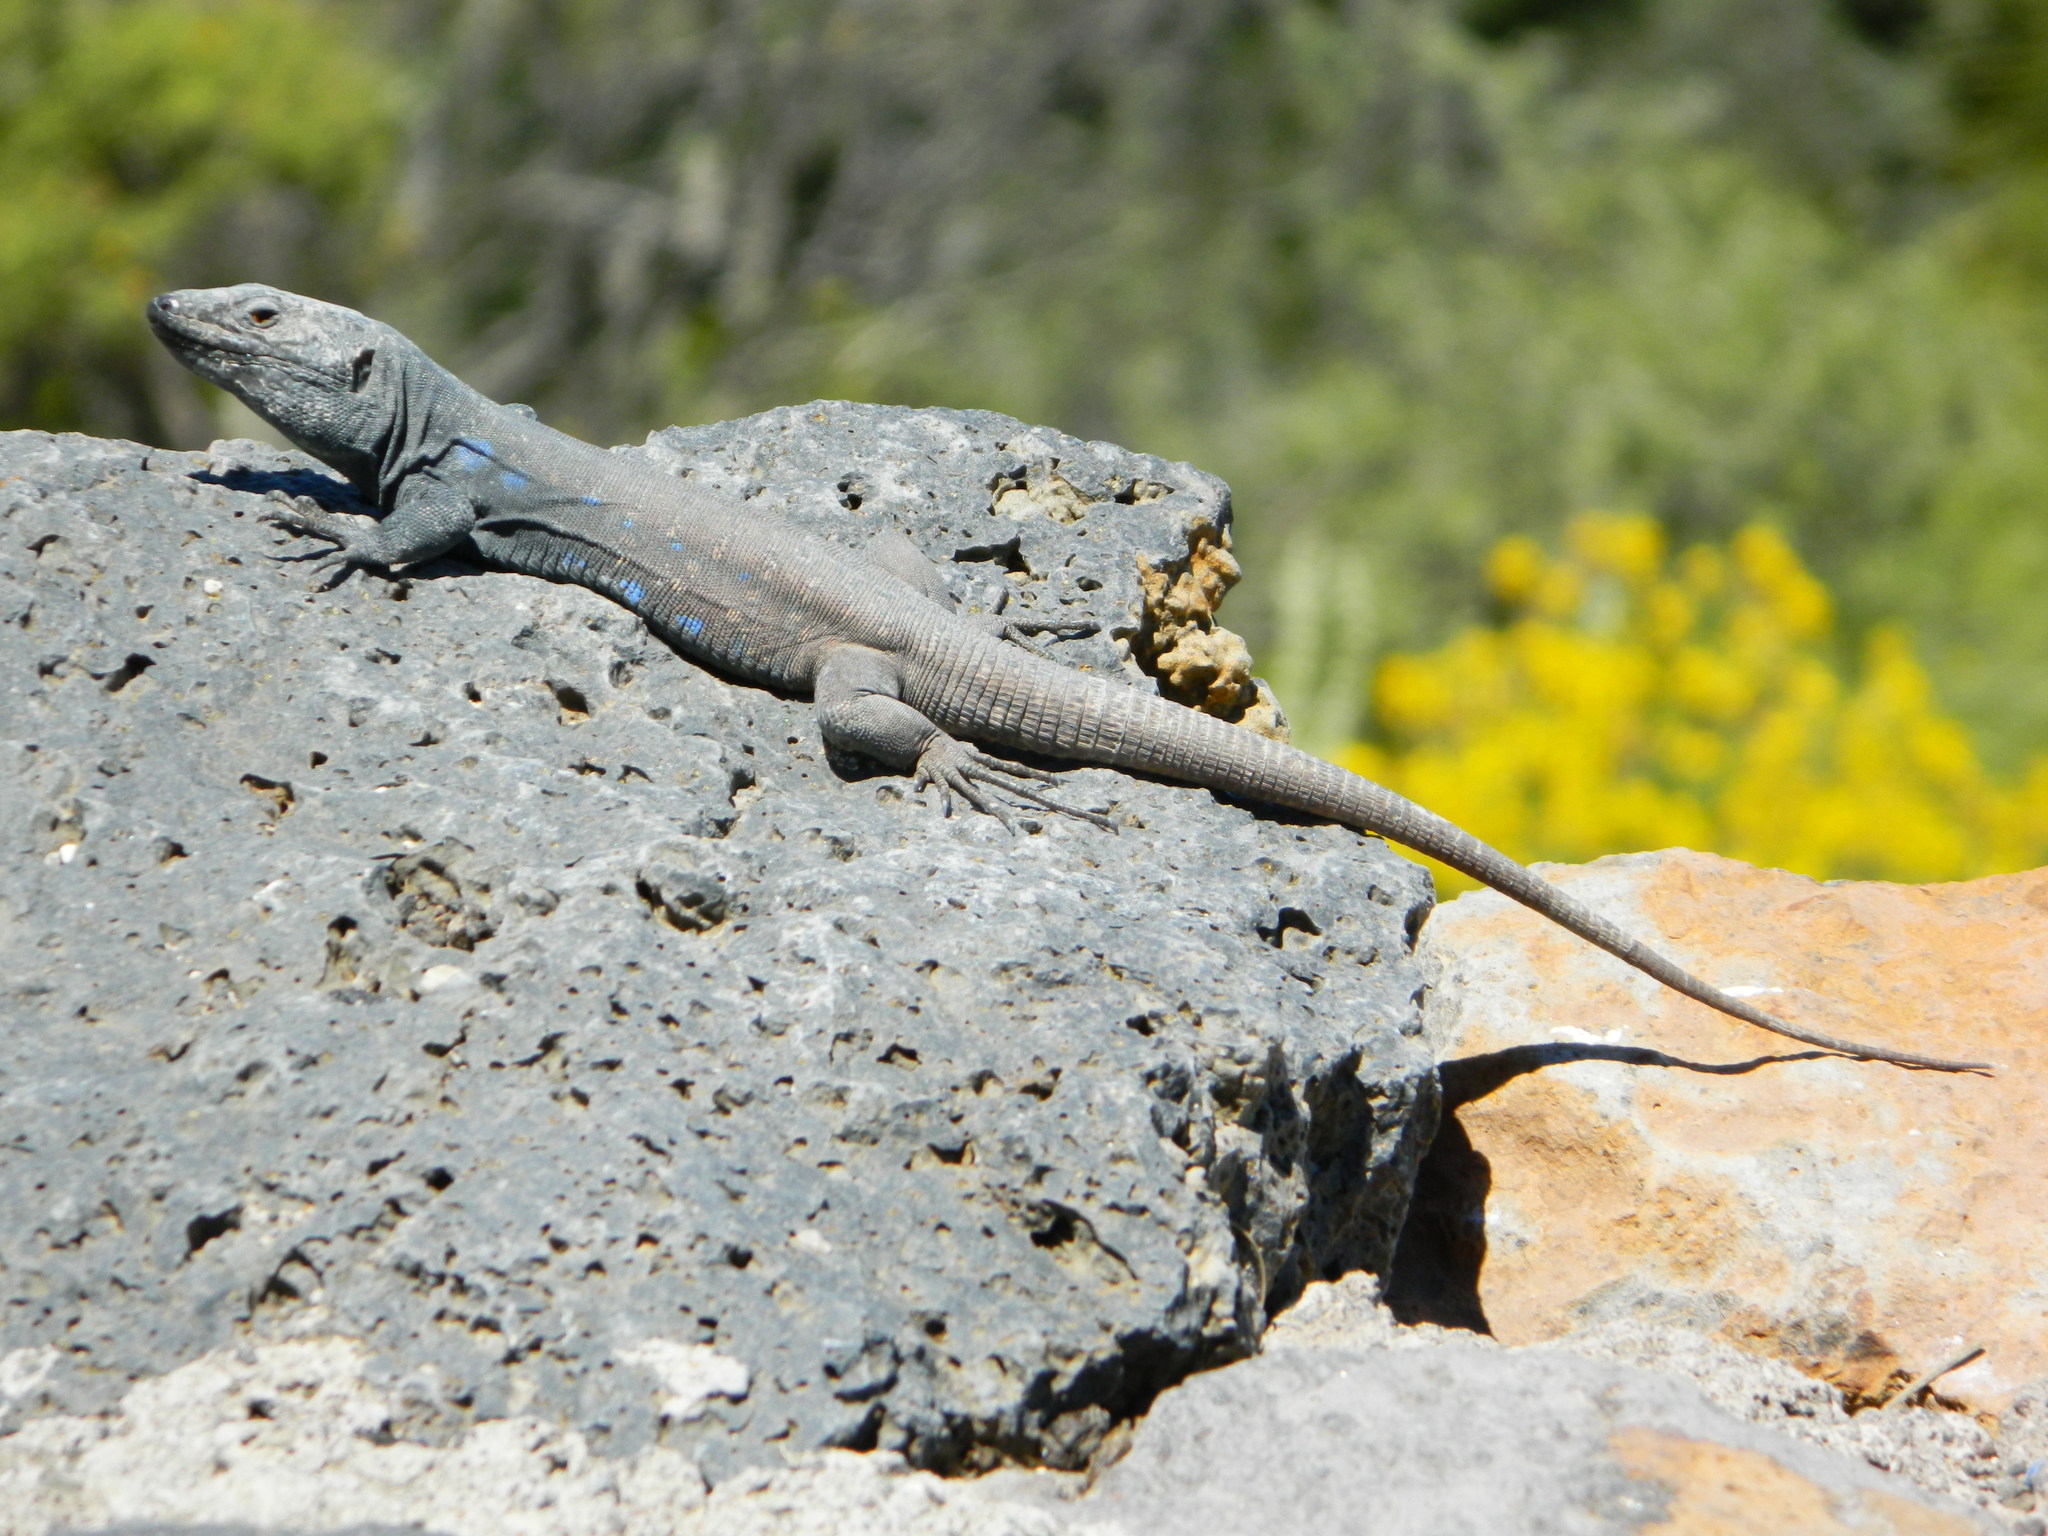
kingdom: Animalia
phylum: Chordata
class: Squamata
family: Lacertidae
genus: Gallotia
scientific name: Gallotia galloti
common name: Gallot's lizard
